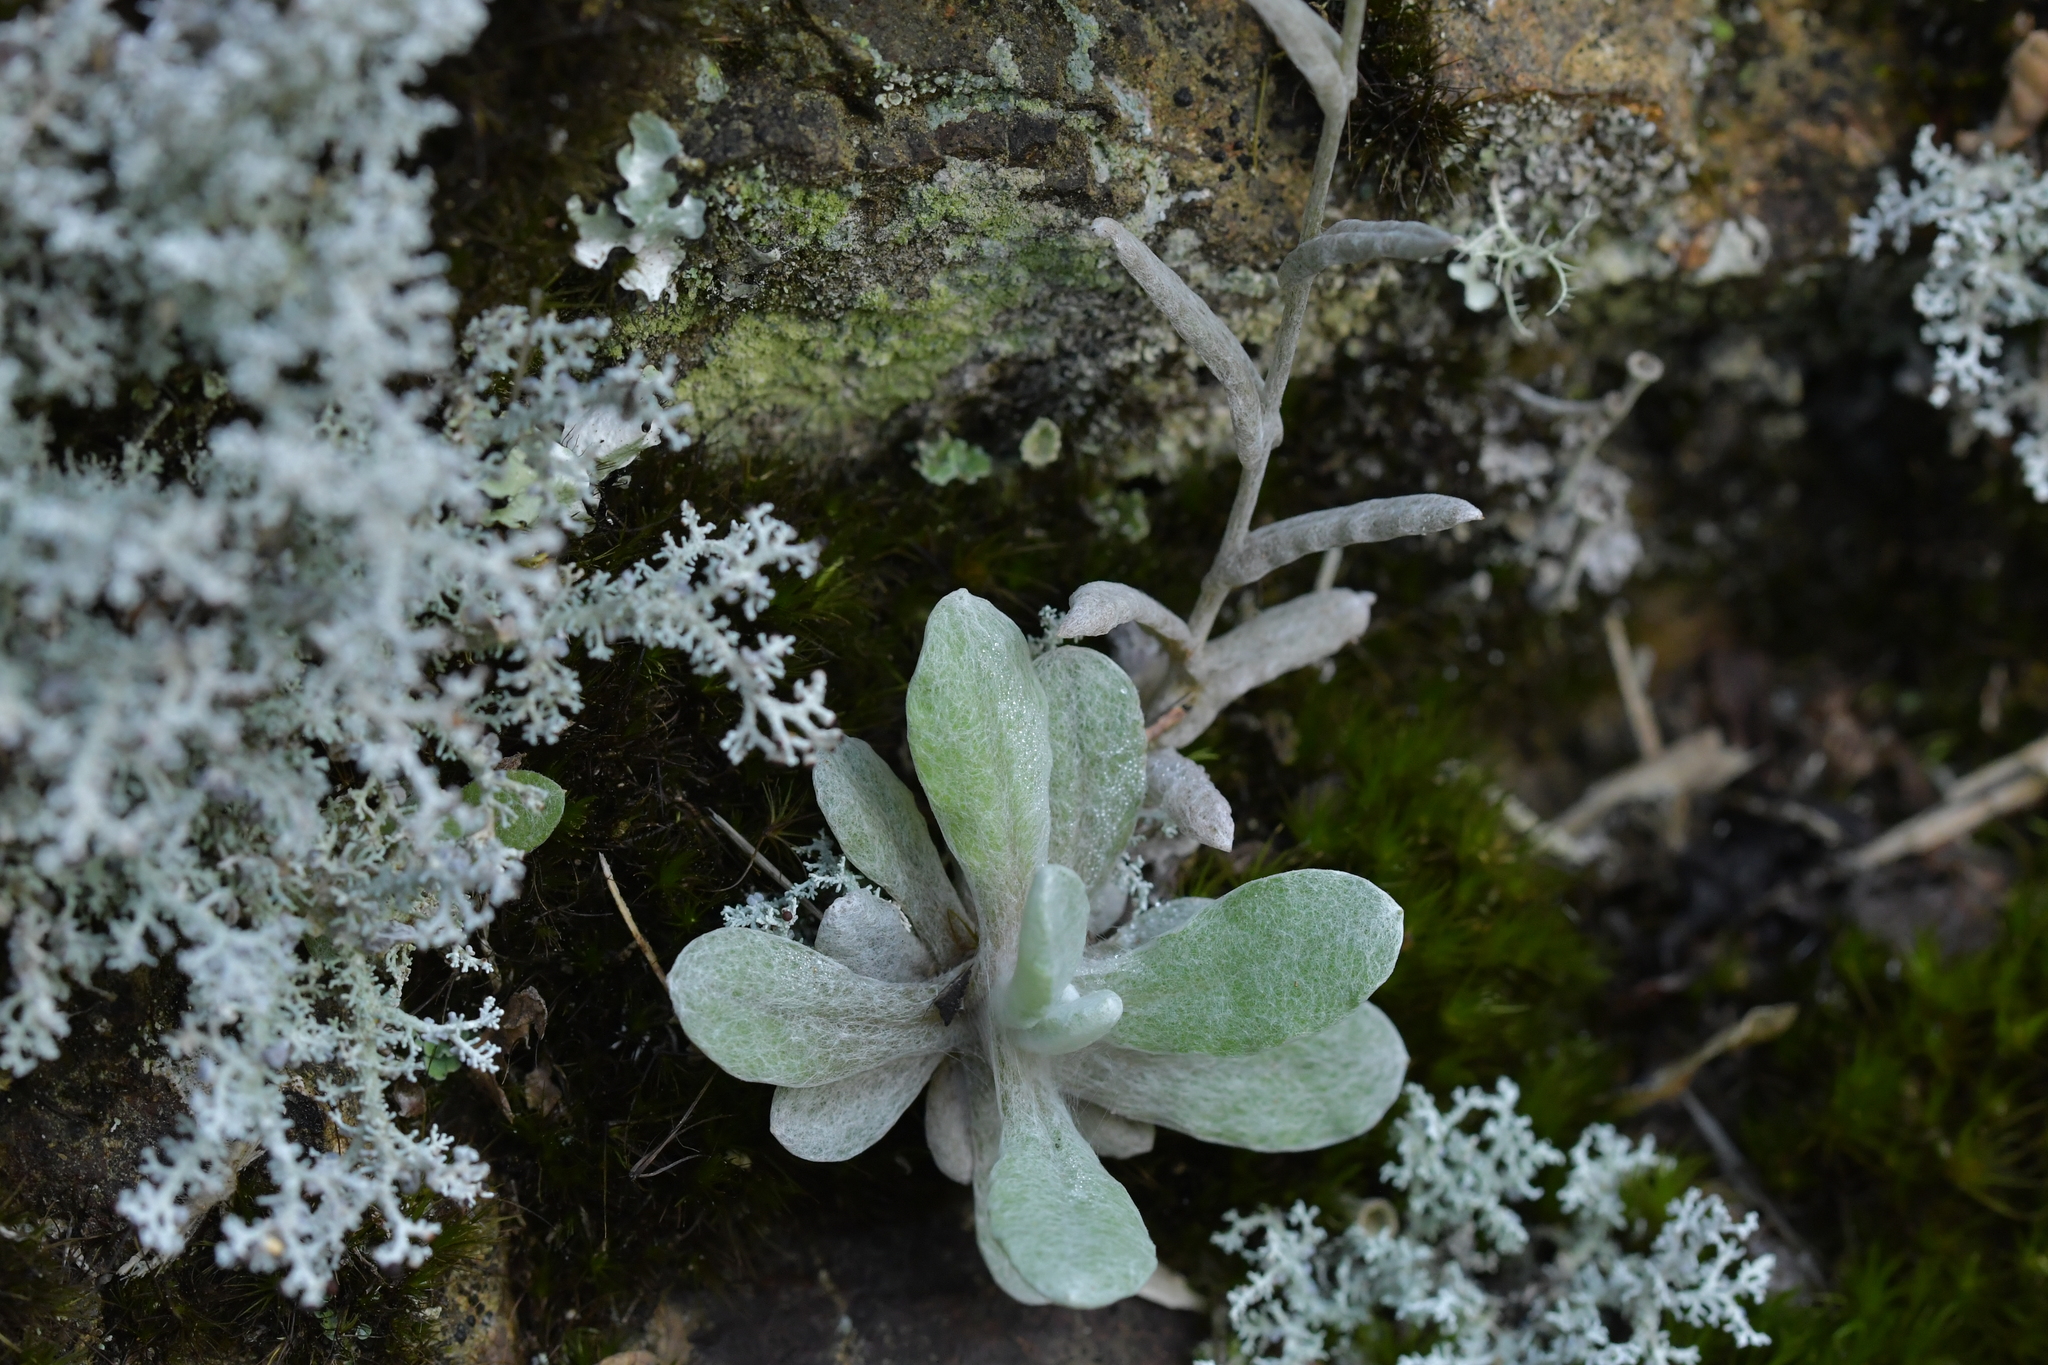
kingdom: Plantae
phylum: Tracheophyta
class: Magnoliopsida
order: Asterales
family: Asteraceae
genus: Helichrysum
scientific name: Helichrysum luteoalbum
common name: Daisy
